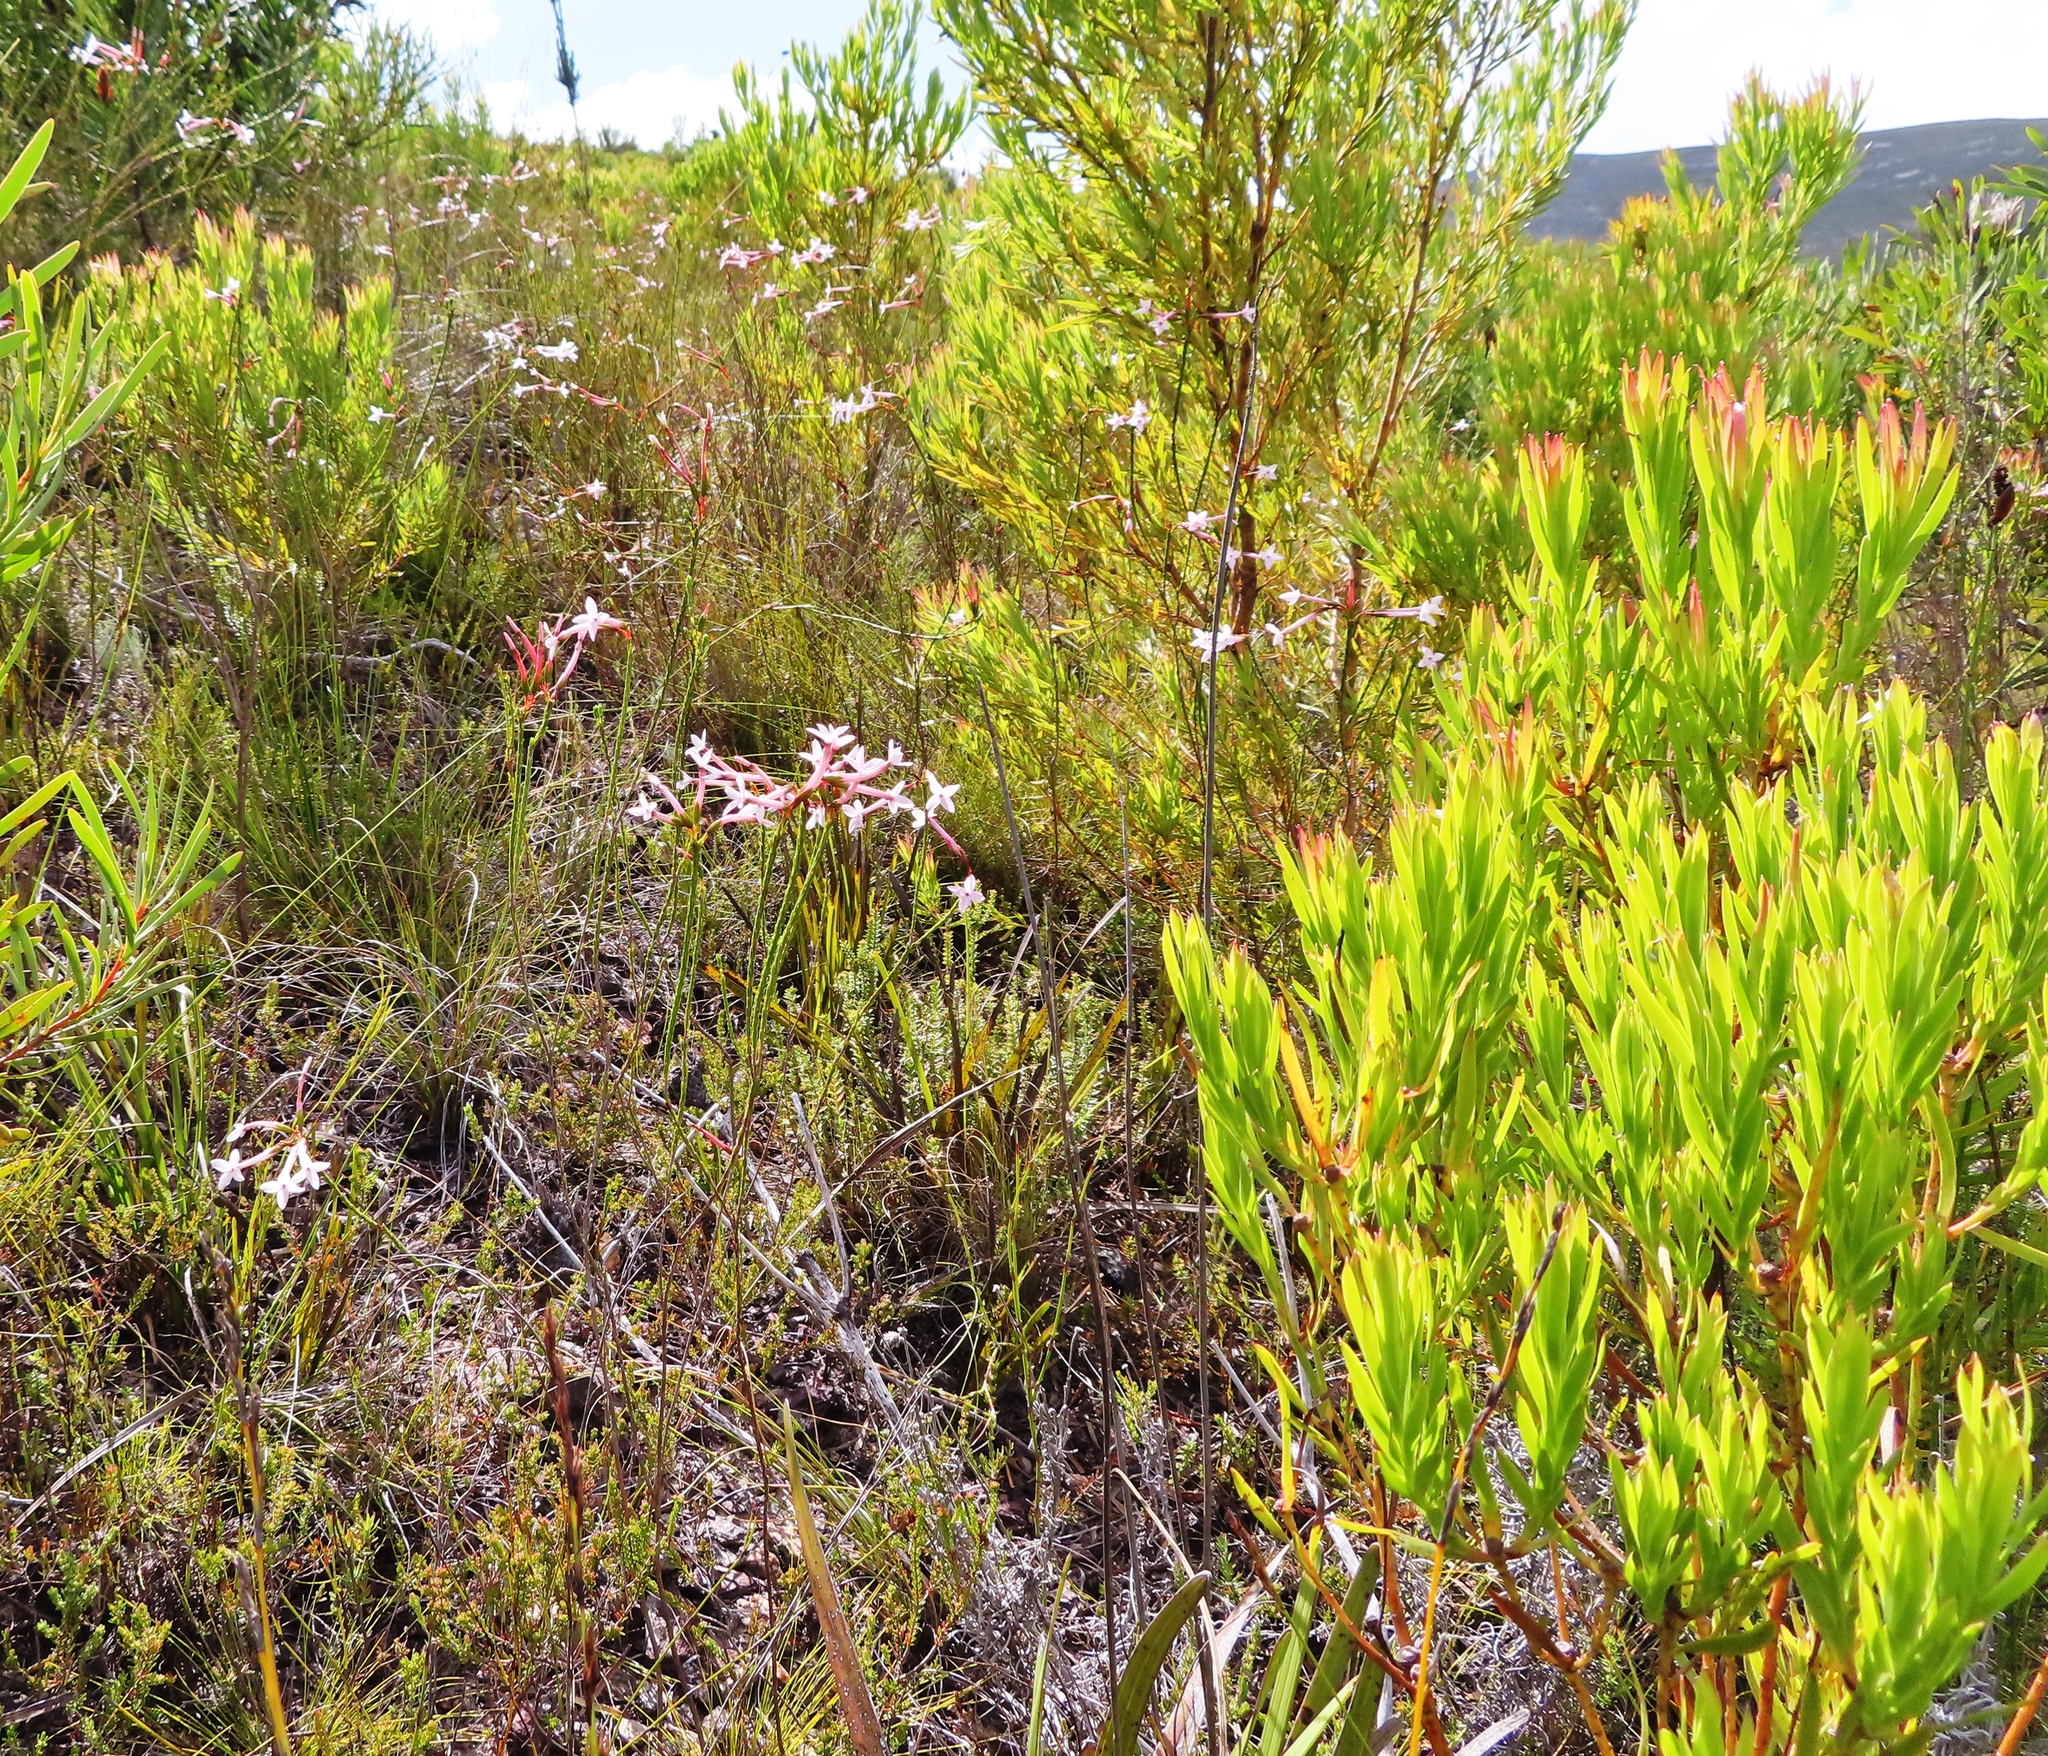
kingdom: Plantae
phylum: Tracheophyta
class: Magnoliopsida
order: Ericales
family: Ericaceae
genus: Erica
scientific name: Erica jasminiflora
